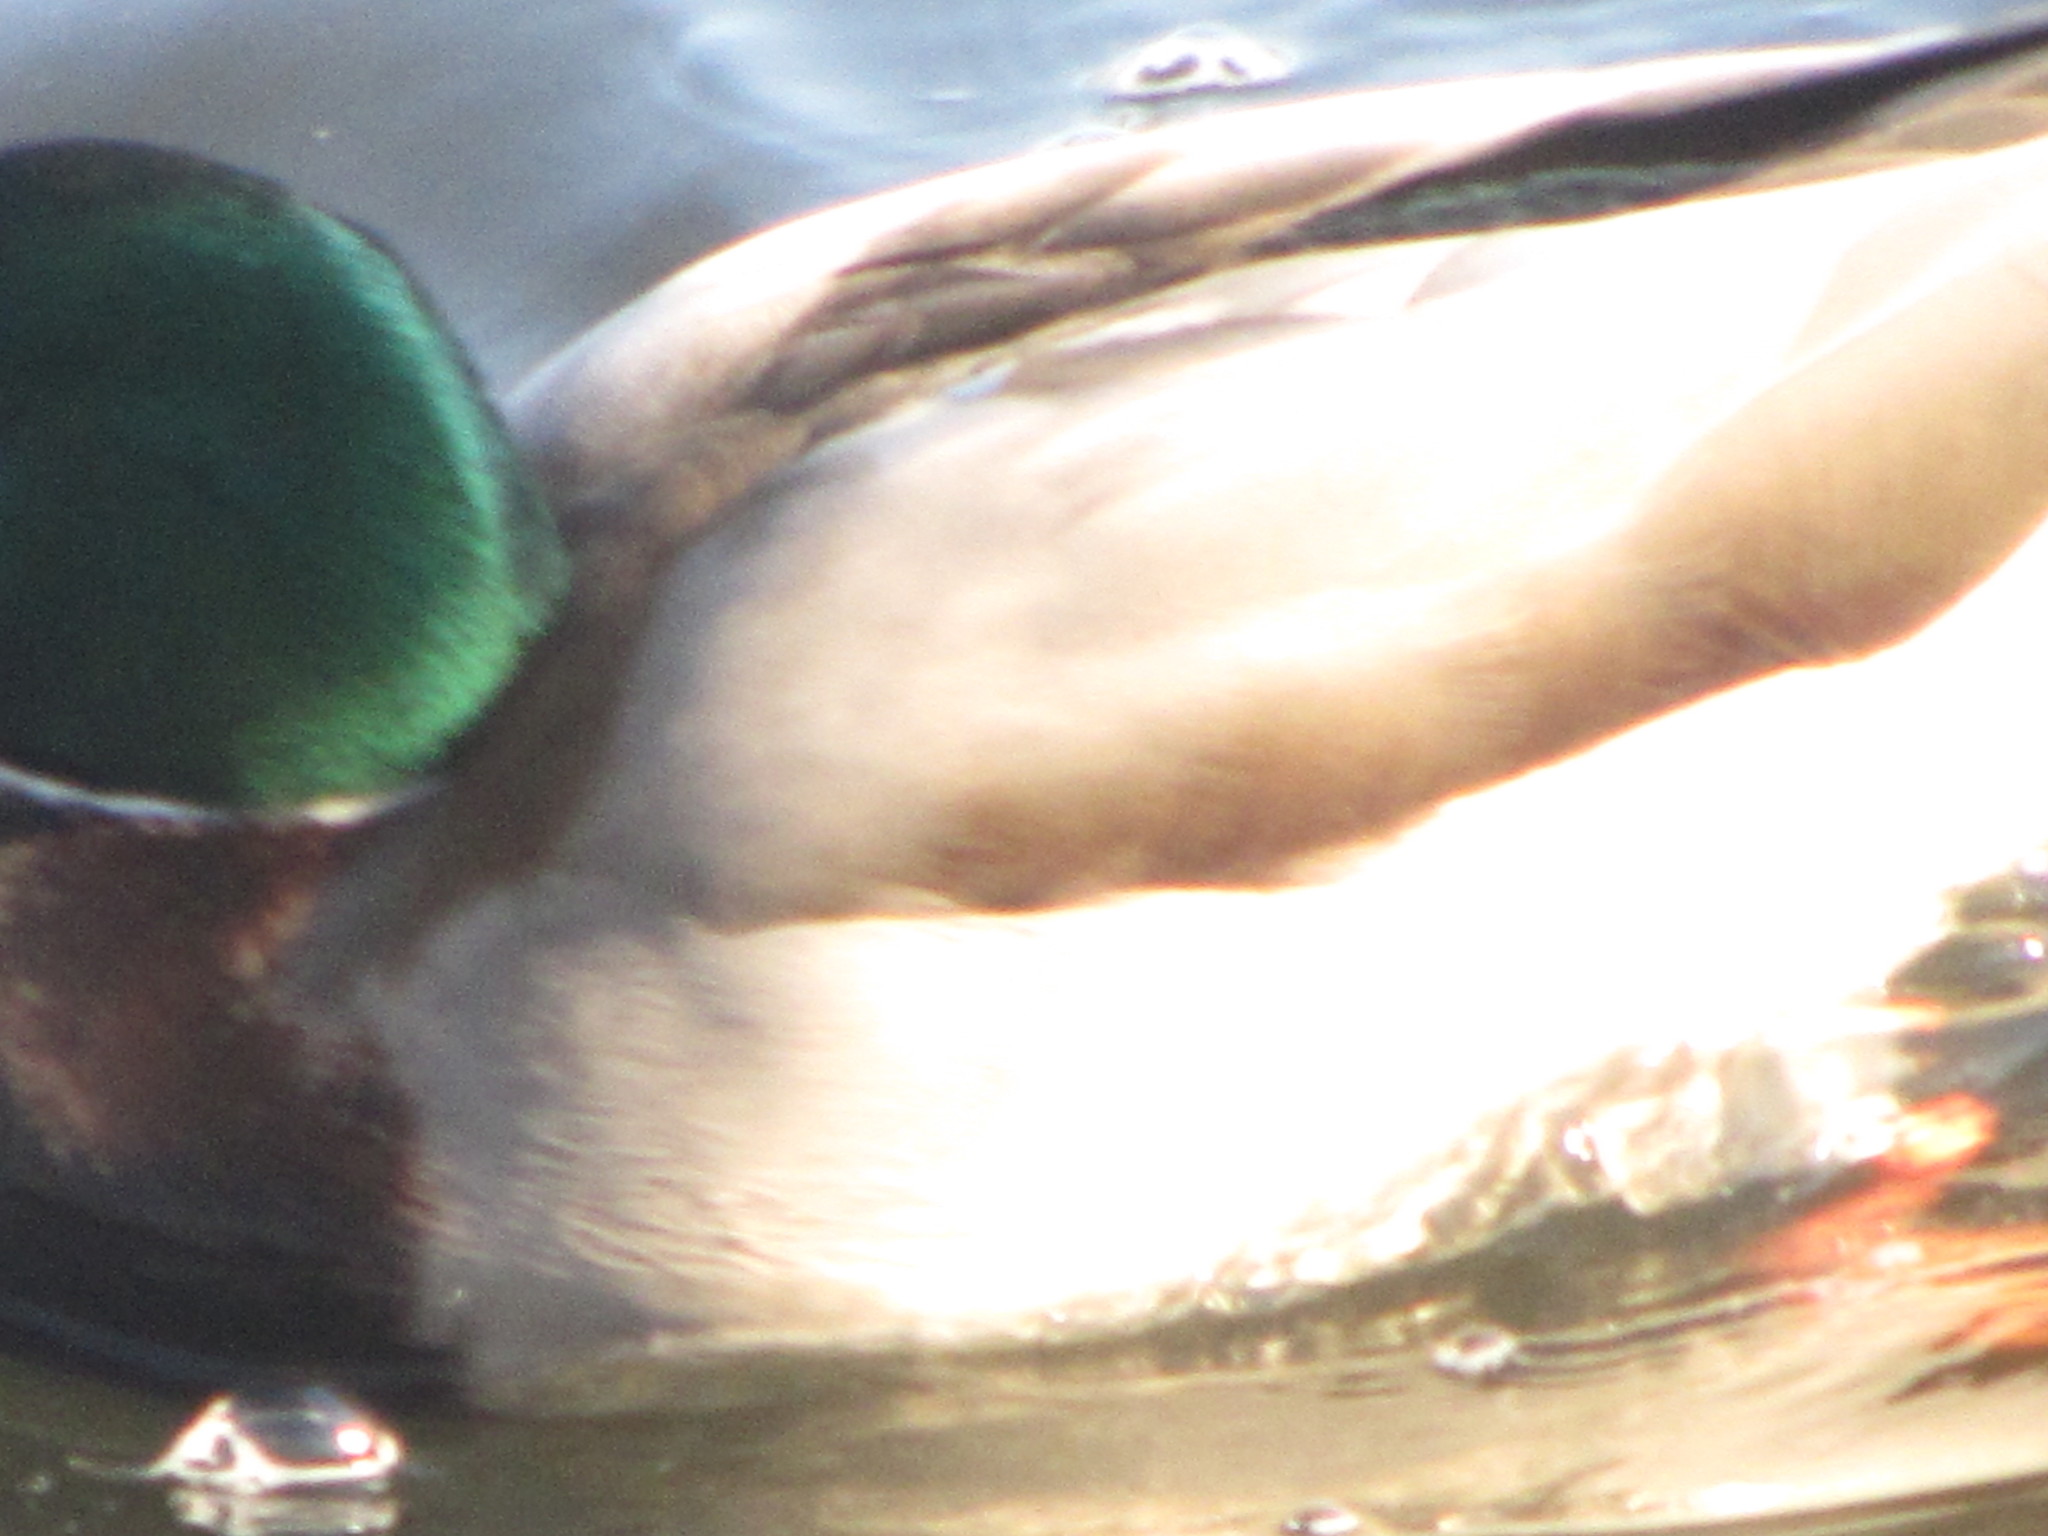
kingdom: Animalia
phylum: Chordata
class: Aves
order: Anseriformes
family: Anatidae
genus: Anas
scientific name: Anas platyrhynchos
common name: Mallard
